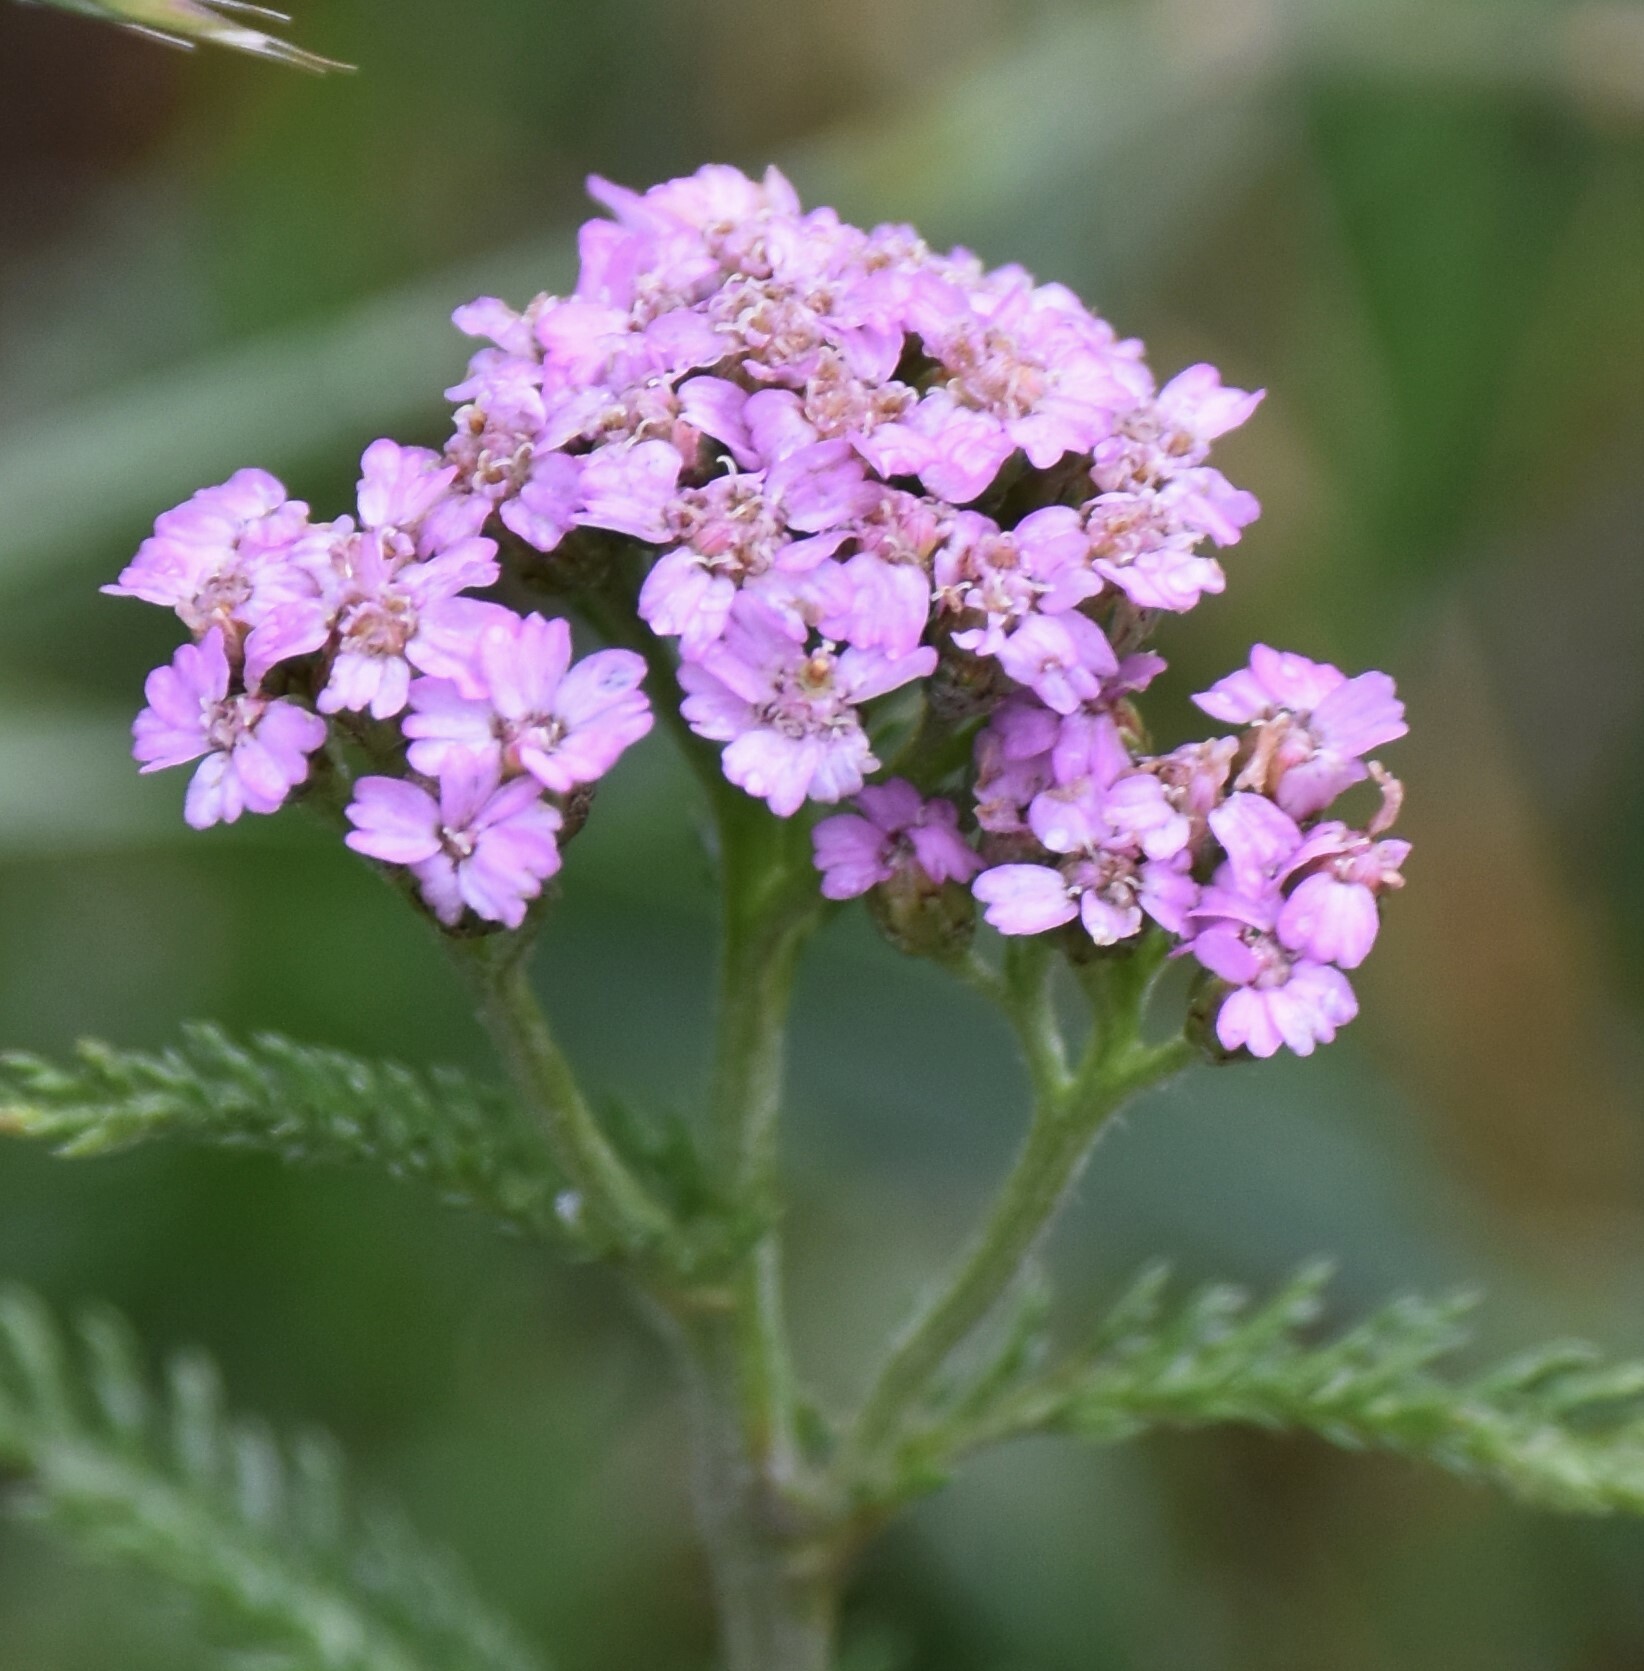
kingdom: Plantae
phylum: Tracheophyta
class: Magnoliopsida
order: Asterales
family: Asteraceae
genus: Achillea
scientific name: Achillea millefolium
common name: Yarrow
